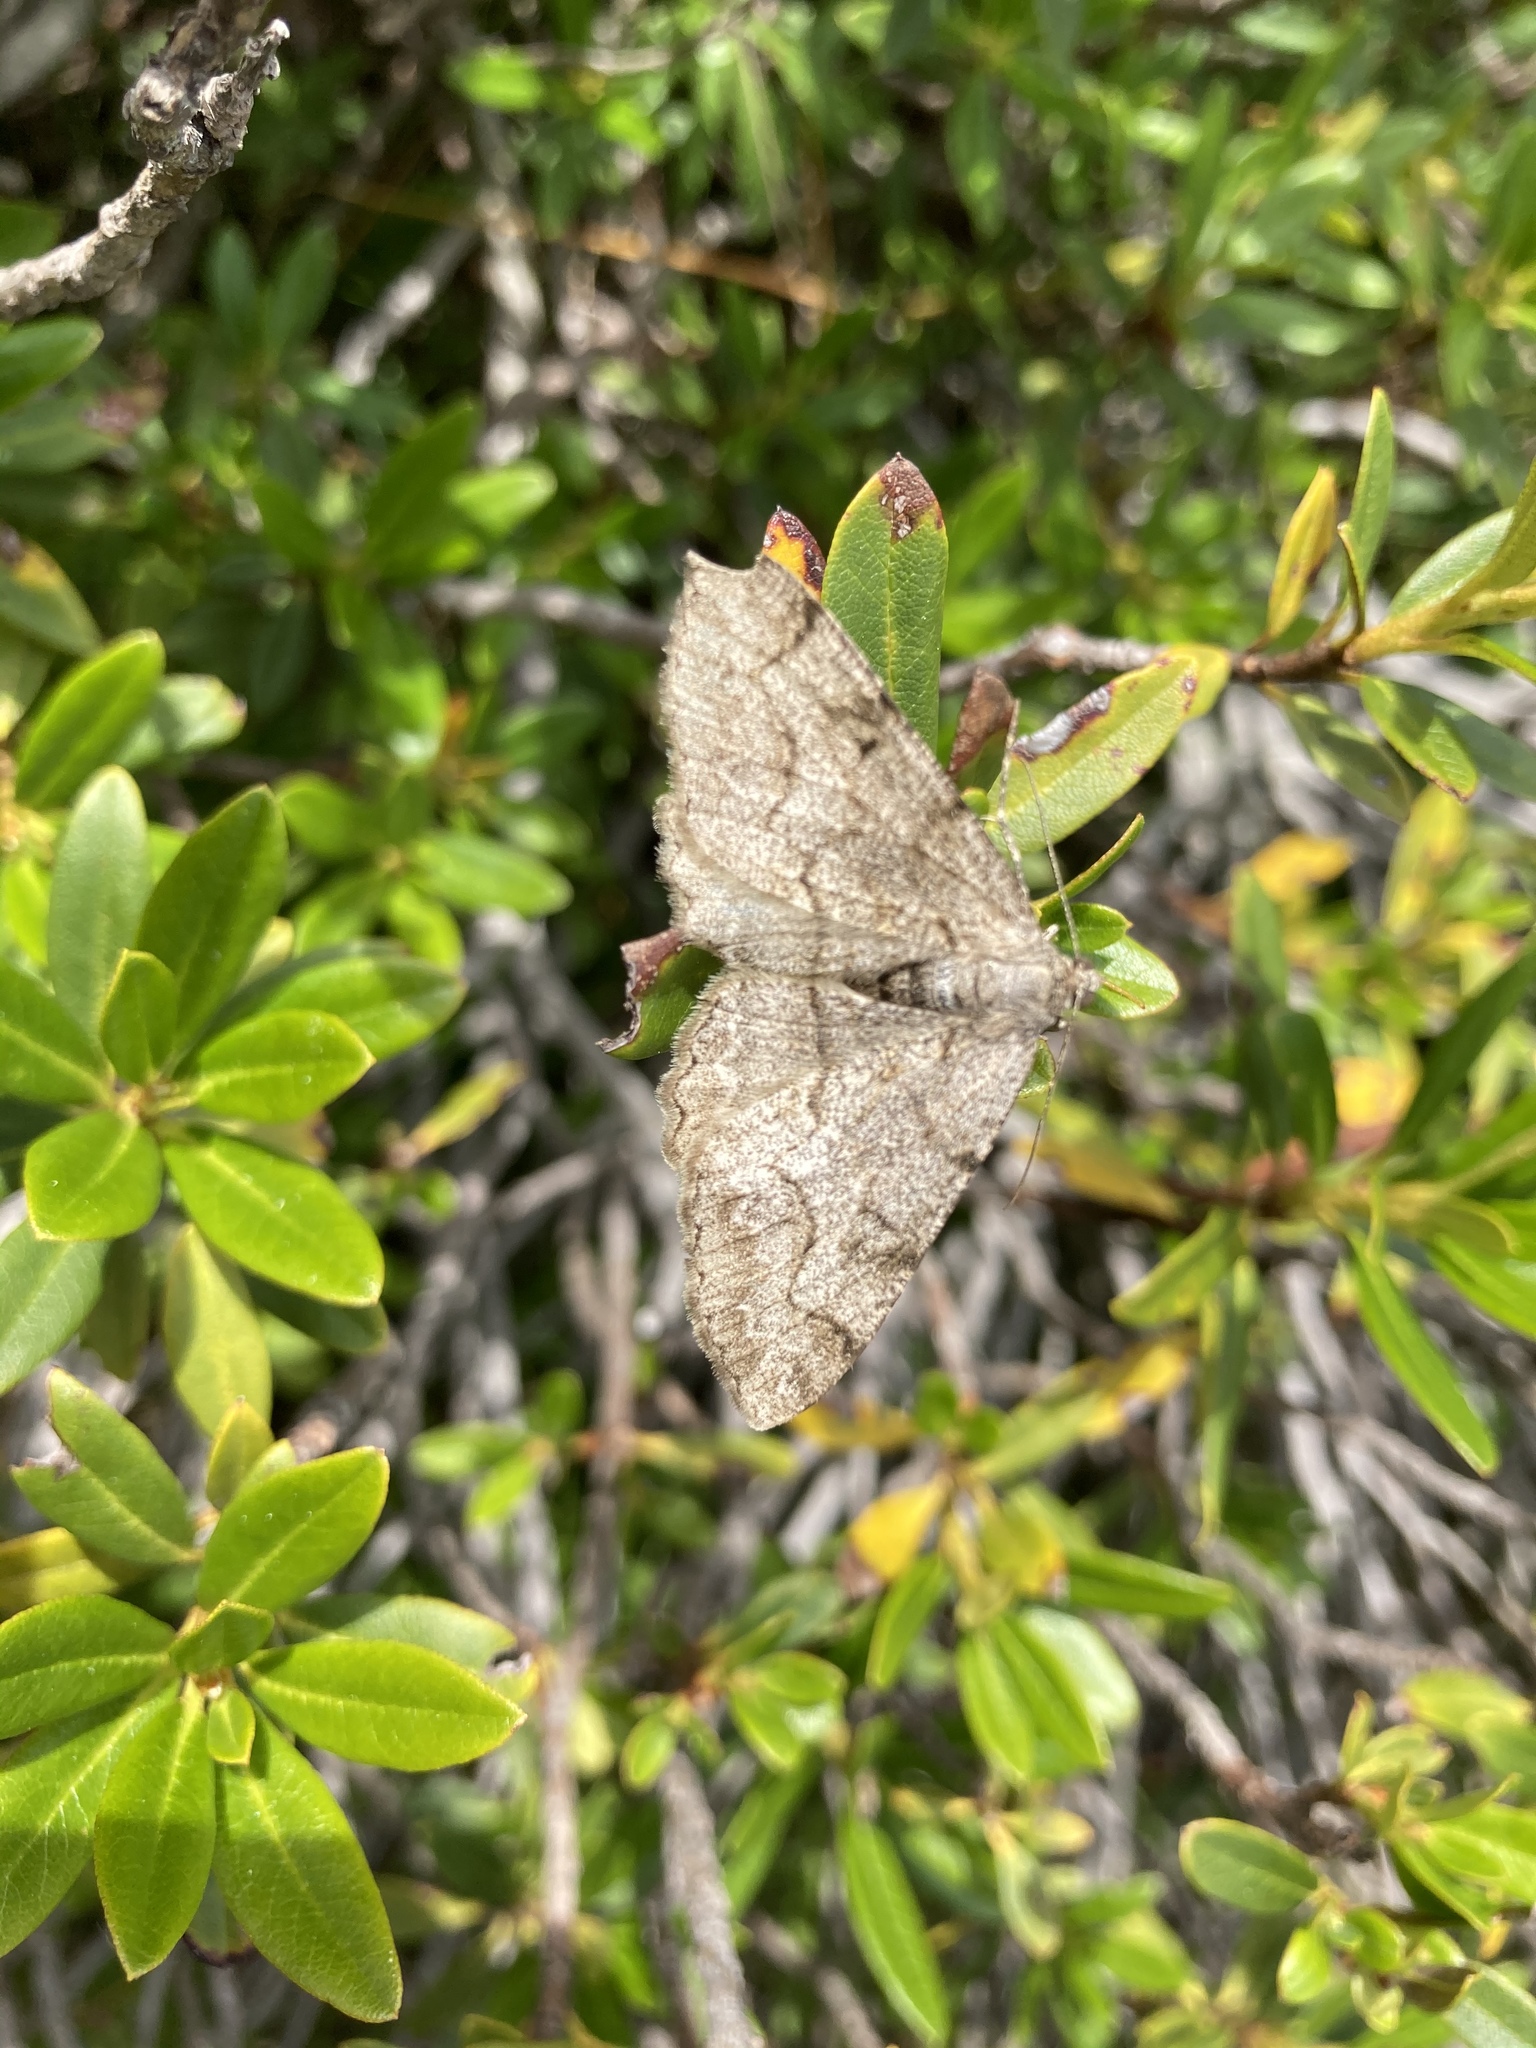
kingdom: Animalia
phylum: Arthropoda
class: Insecta
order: Lepidoptera
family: Geometridae
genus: Alcis
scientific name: Alcis repandata
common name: Mottled beauty
